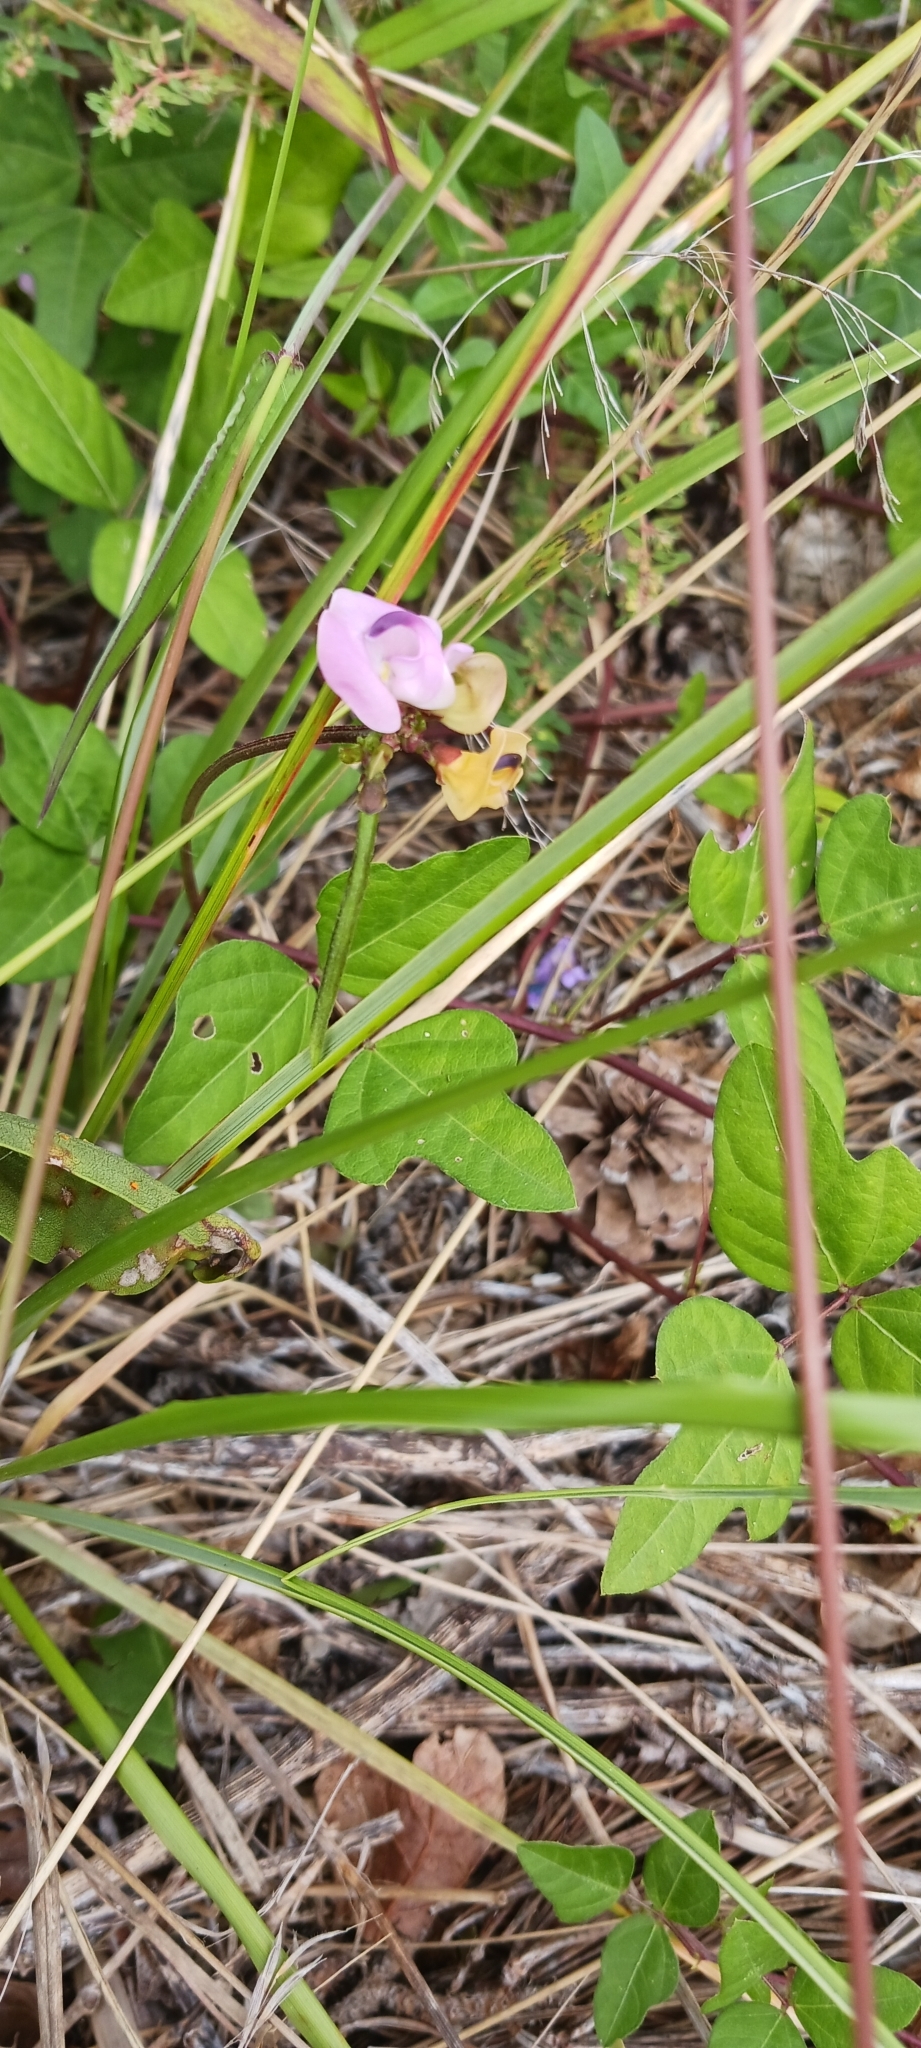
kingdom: Plantae
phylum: Tracheophyta
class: Magnoliopsida
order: Fabales
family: Fabaceae
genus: Strophostyles
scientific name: Strophostyles helvola
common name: Trailing wild bean
